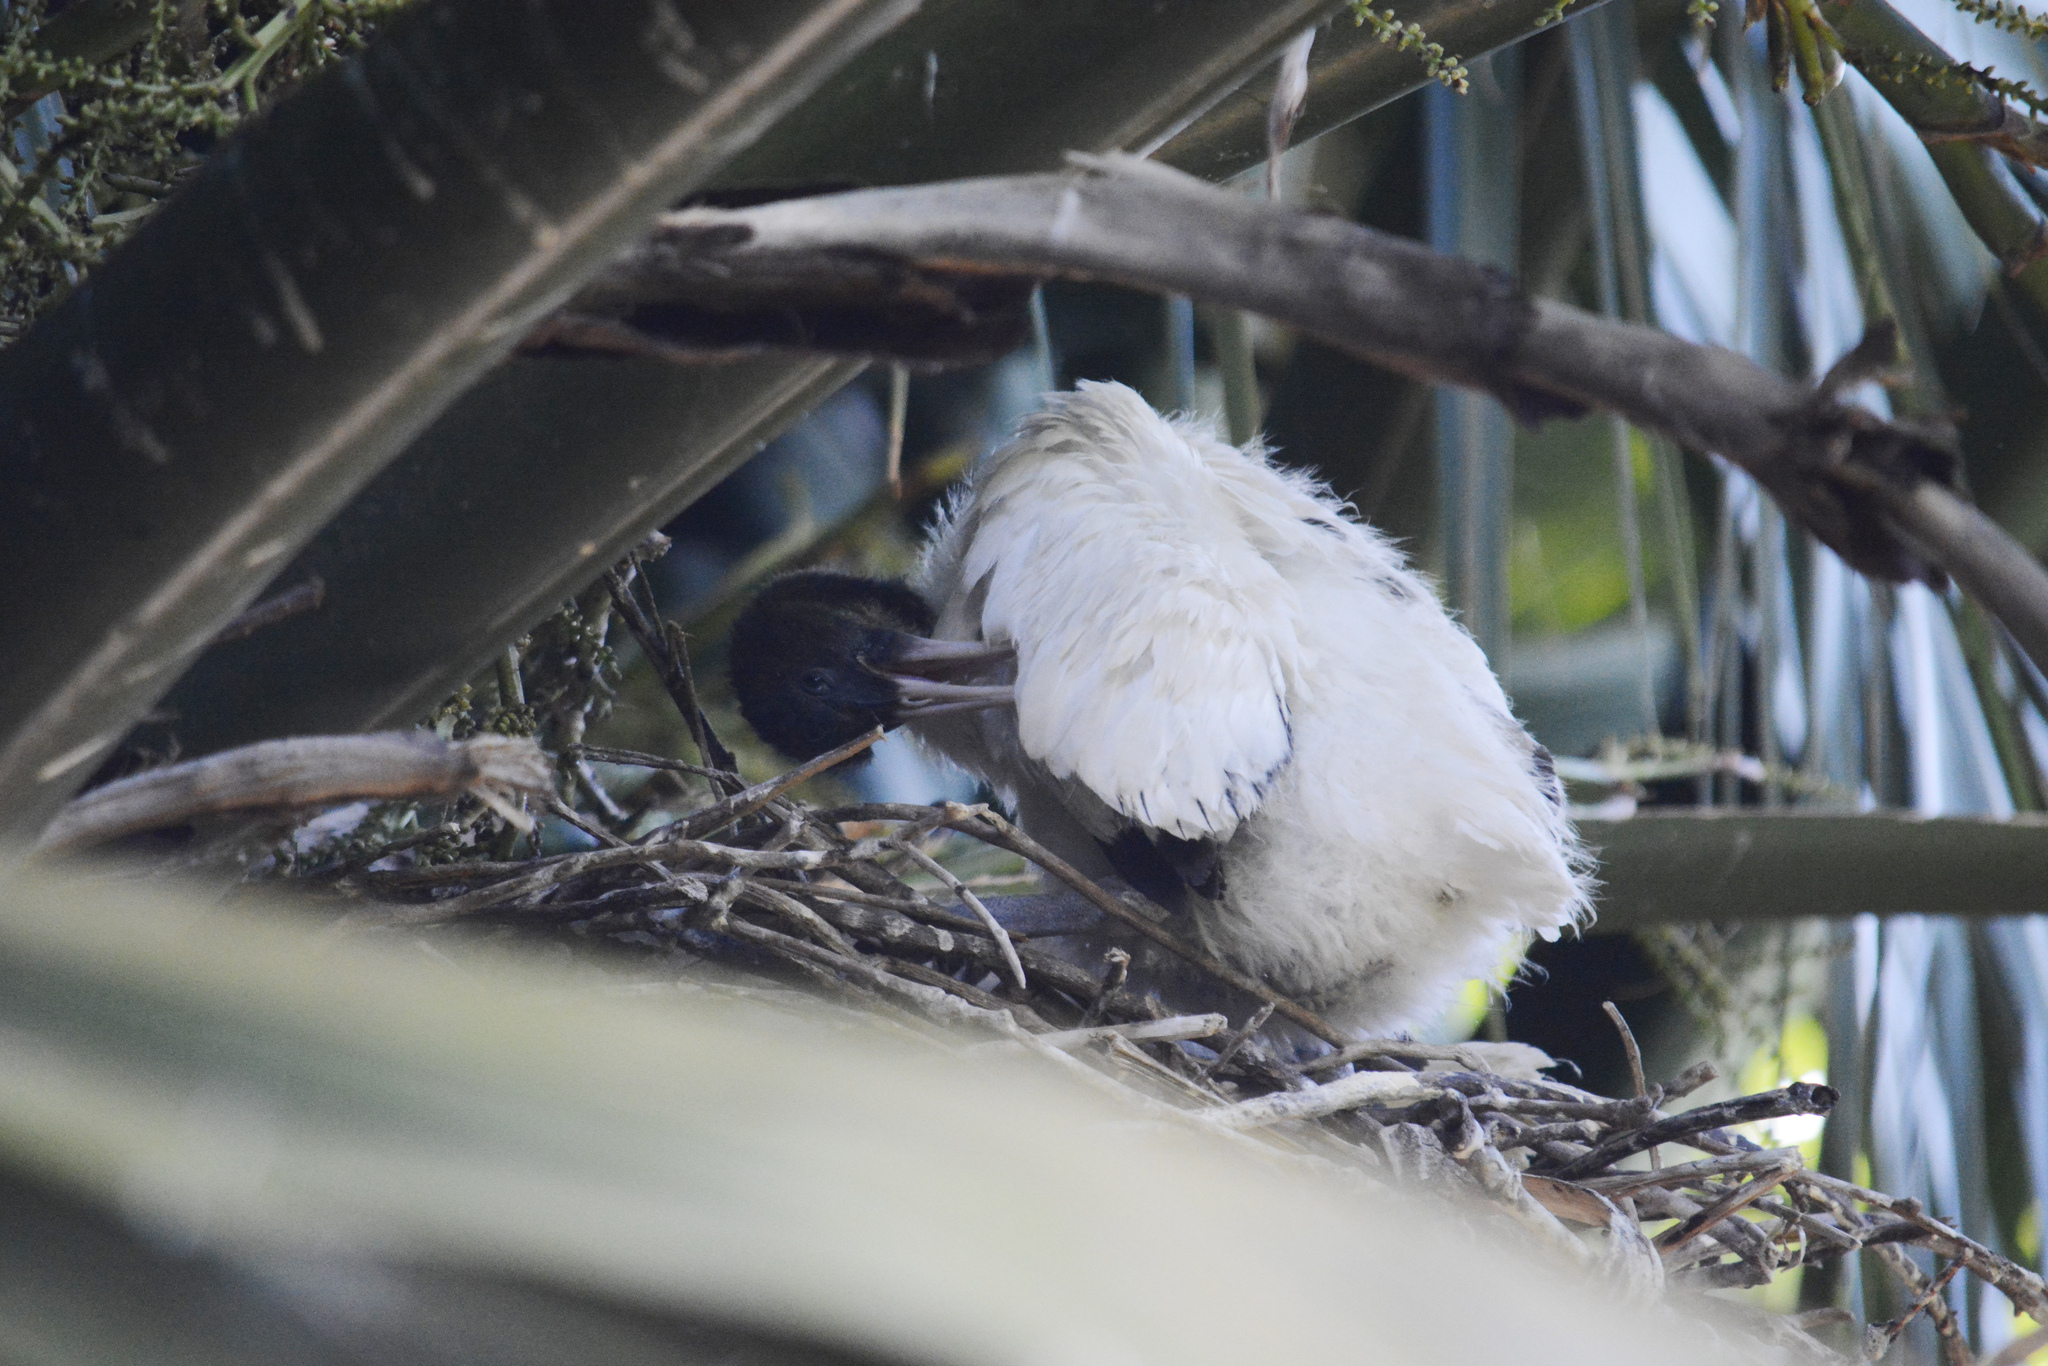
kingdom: Animalia
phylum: Chordata
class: Aves
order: Pelecaniformes
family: Threskiornithidae
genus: Threskiornis
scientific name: Threskiornis molucca
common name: Australian white ibis
